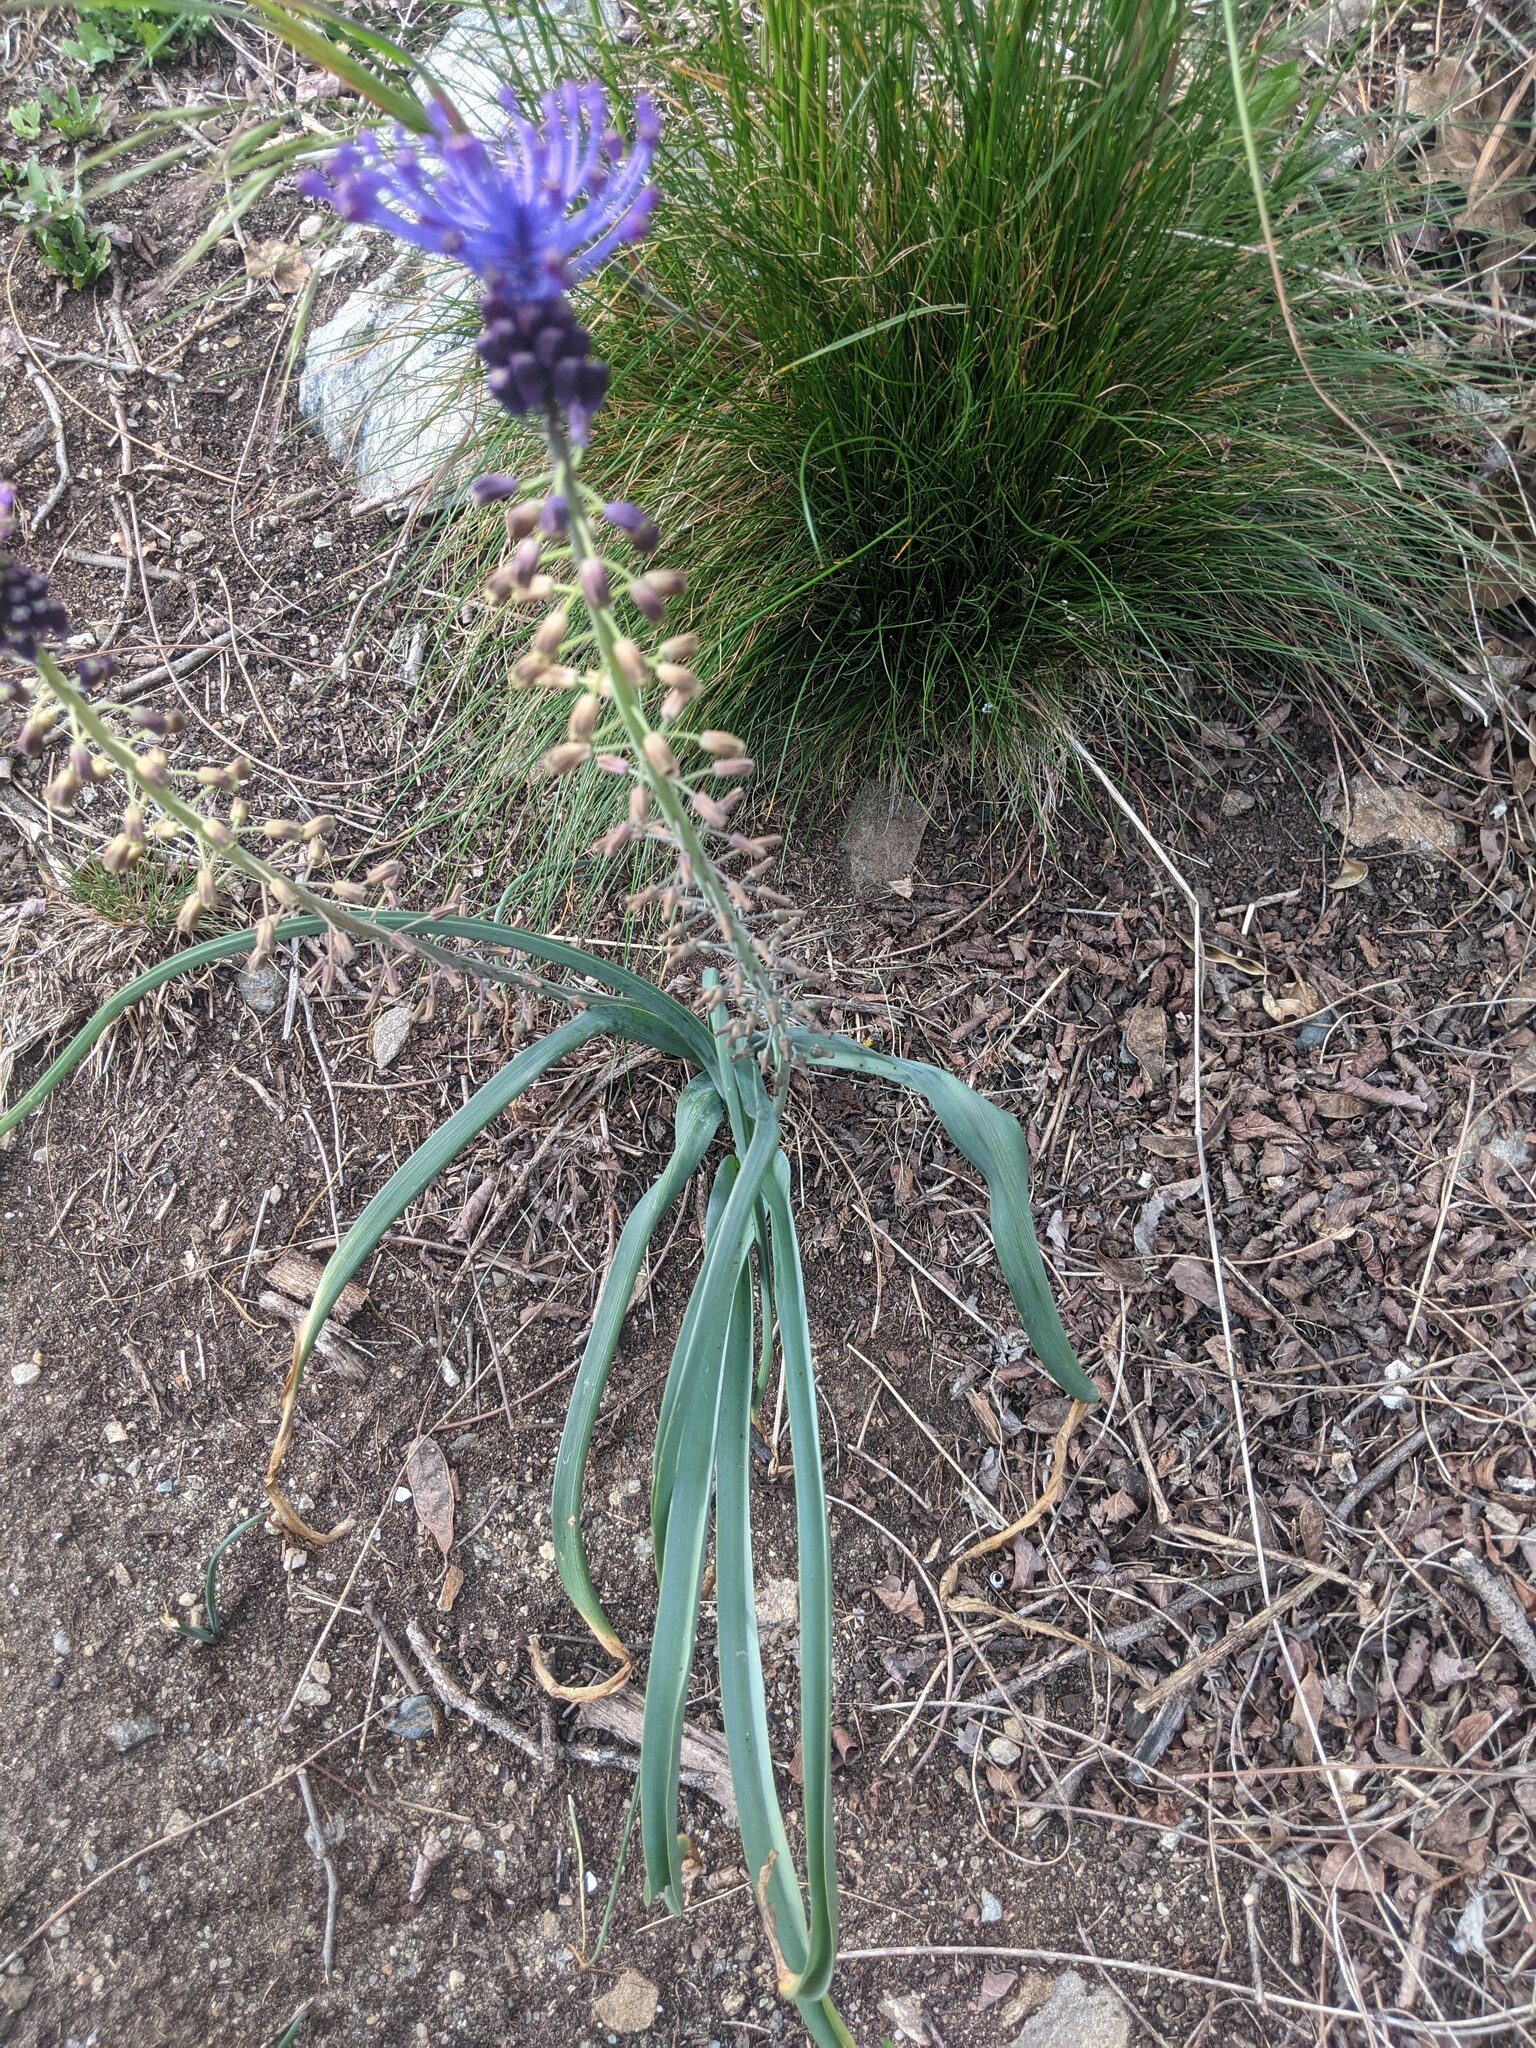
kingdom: Plantae
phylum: Tracheophyta
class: Liliopsida
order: Asparagales
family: Asparagaceae
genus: Muscari
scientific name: Muscari comosum
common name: Tassel hyacinth
